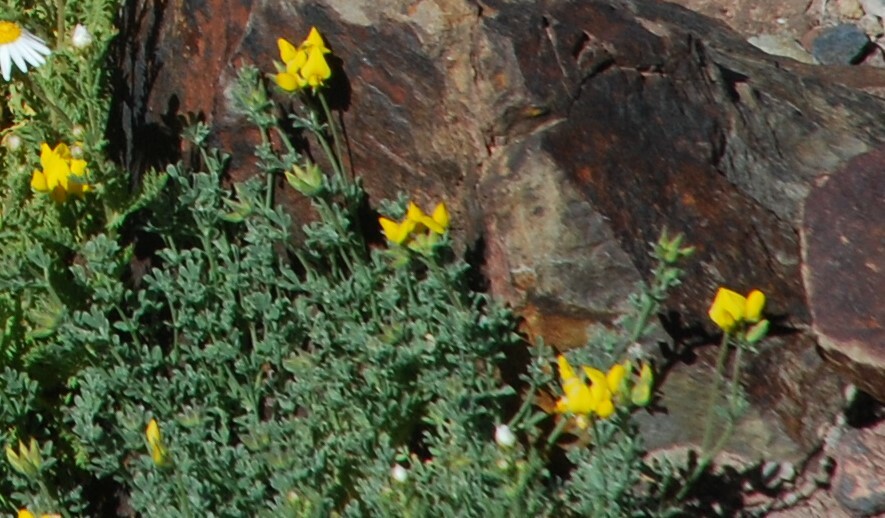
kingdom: Plantae
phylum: Tracheophyta
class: Magnoliopsida
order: Fabales
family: Fabaceae
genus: Lotus
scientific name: Lotus campylocladus
